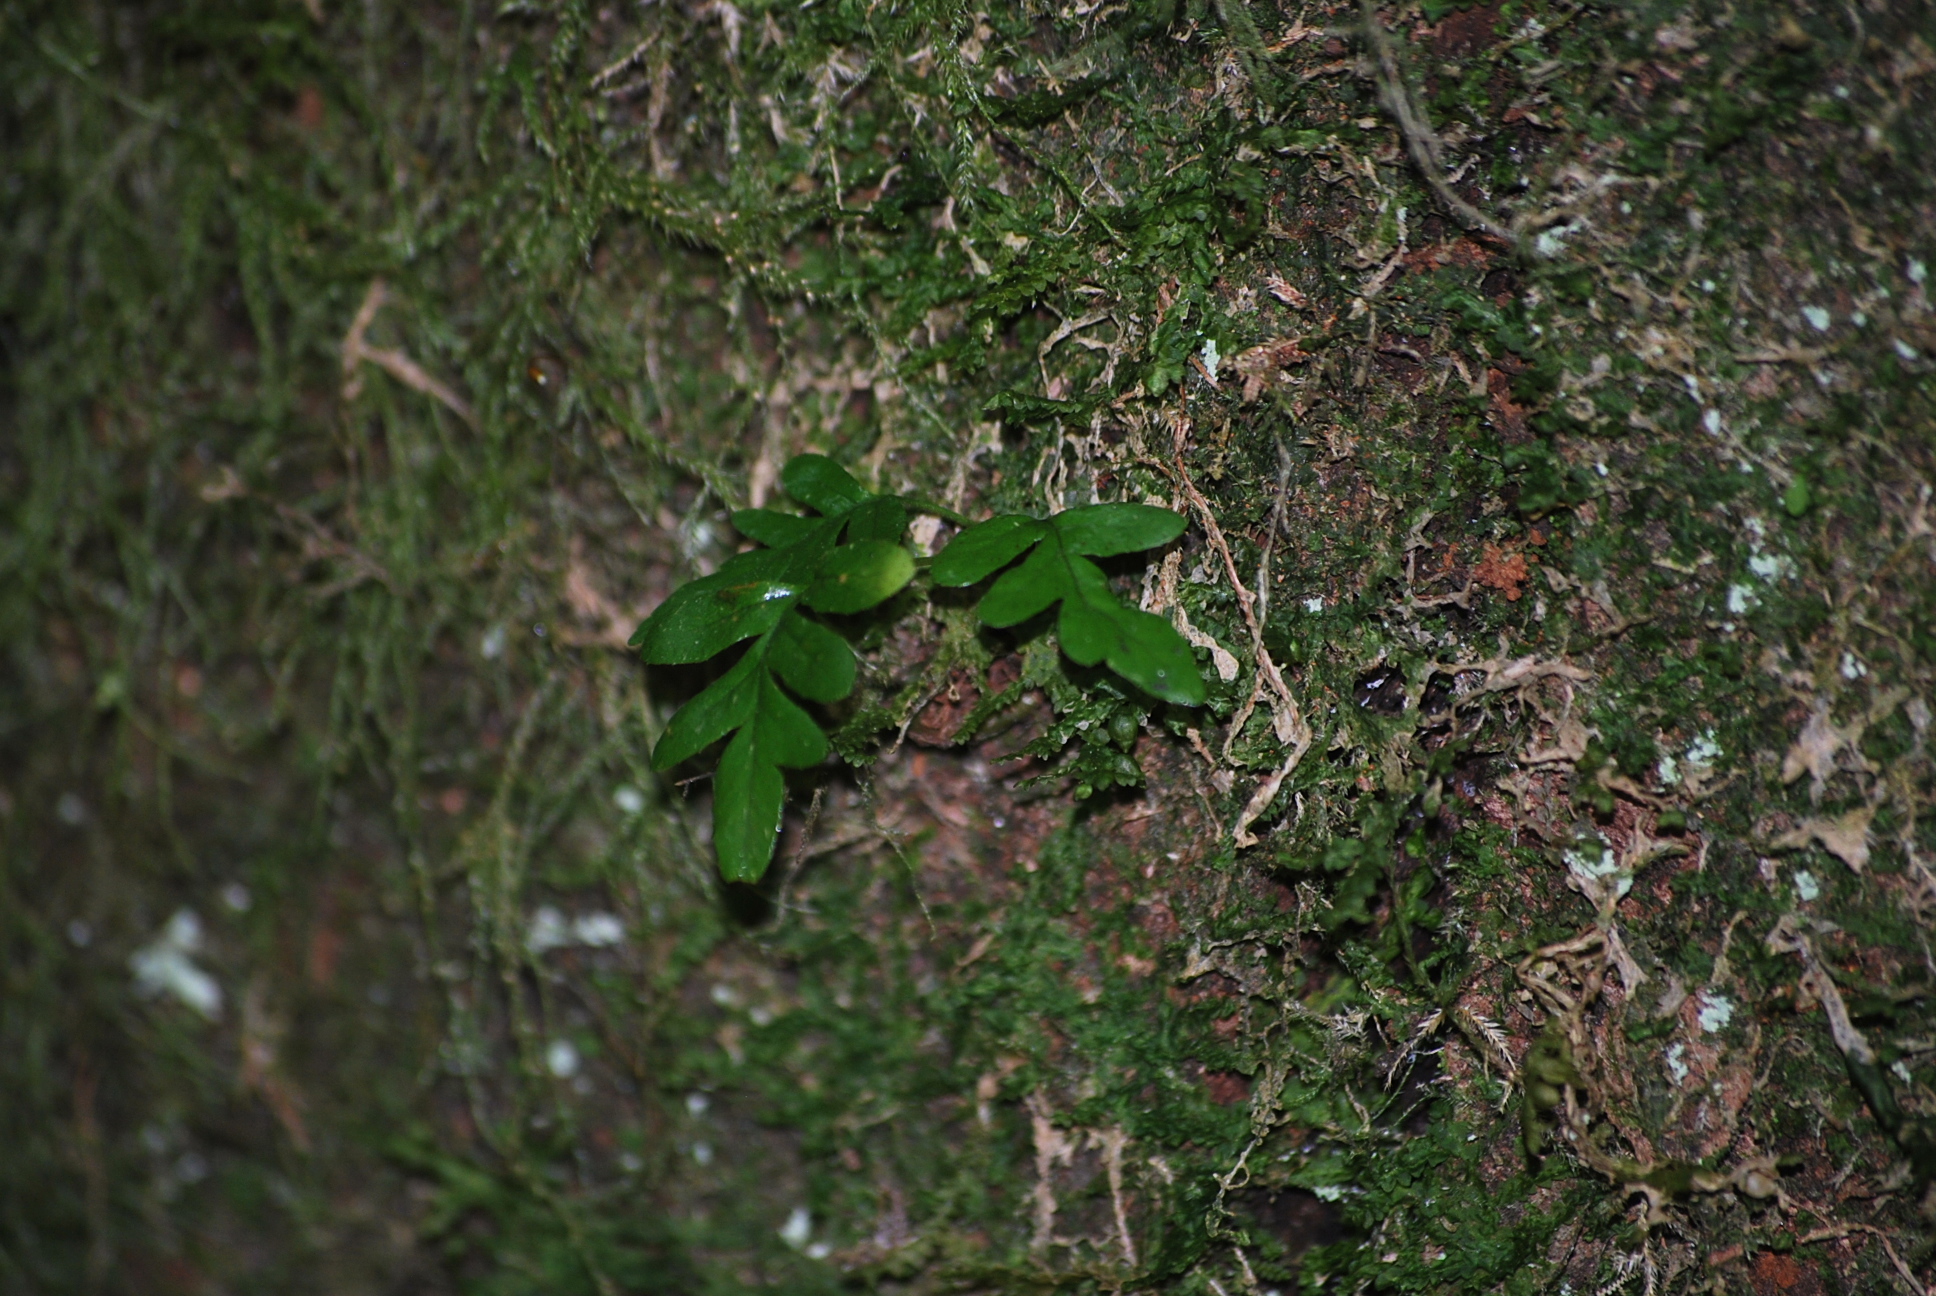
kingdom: Plantae
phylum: Tracheophyta
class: Polypodiopsida
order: Polypodiales
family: Polypodiaceae
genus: Polypodium
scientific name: Polypodium glycyrrhiza
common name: Licorice fern
